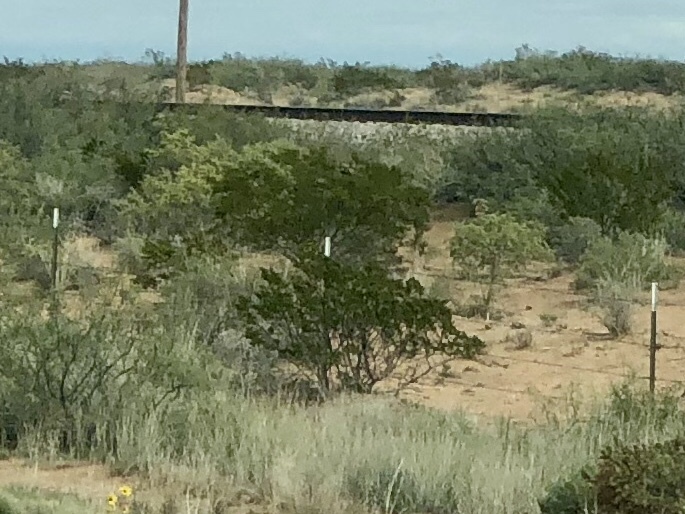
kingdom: Plantae
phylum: Tracheophyta
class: Magnoliopsida
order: Zygophyllales
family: Zygophyllaceae
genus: Larrea
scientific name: Larrea tridentata
